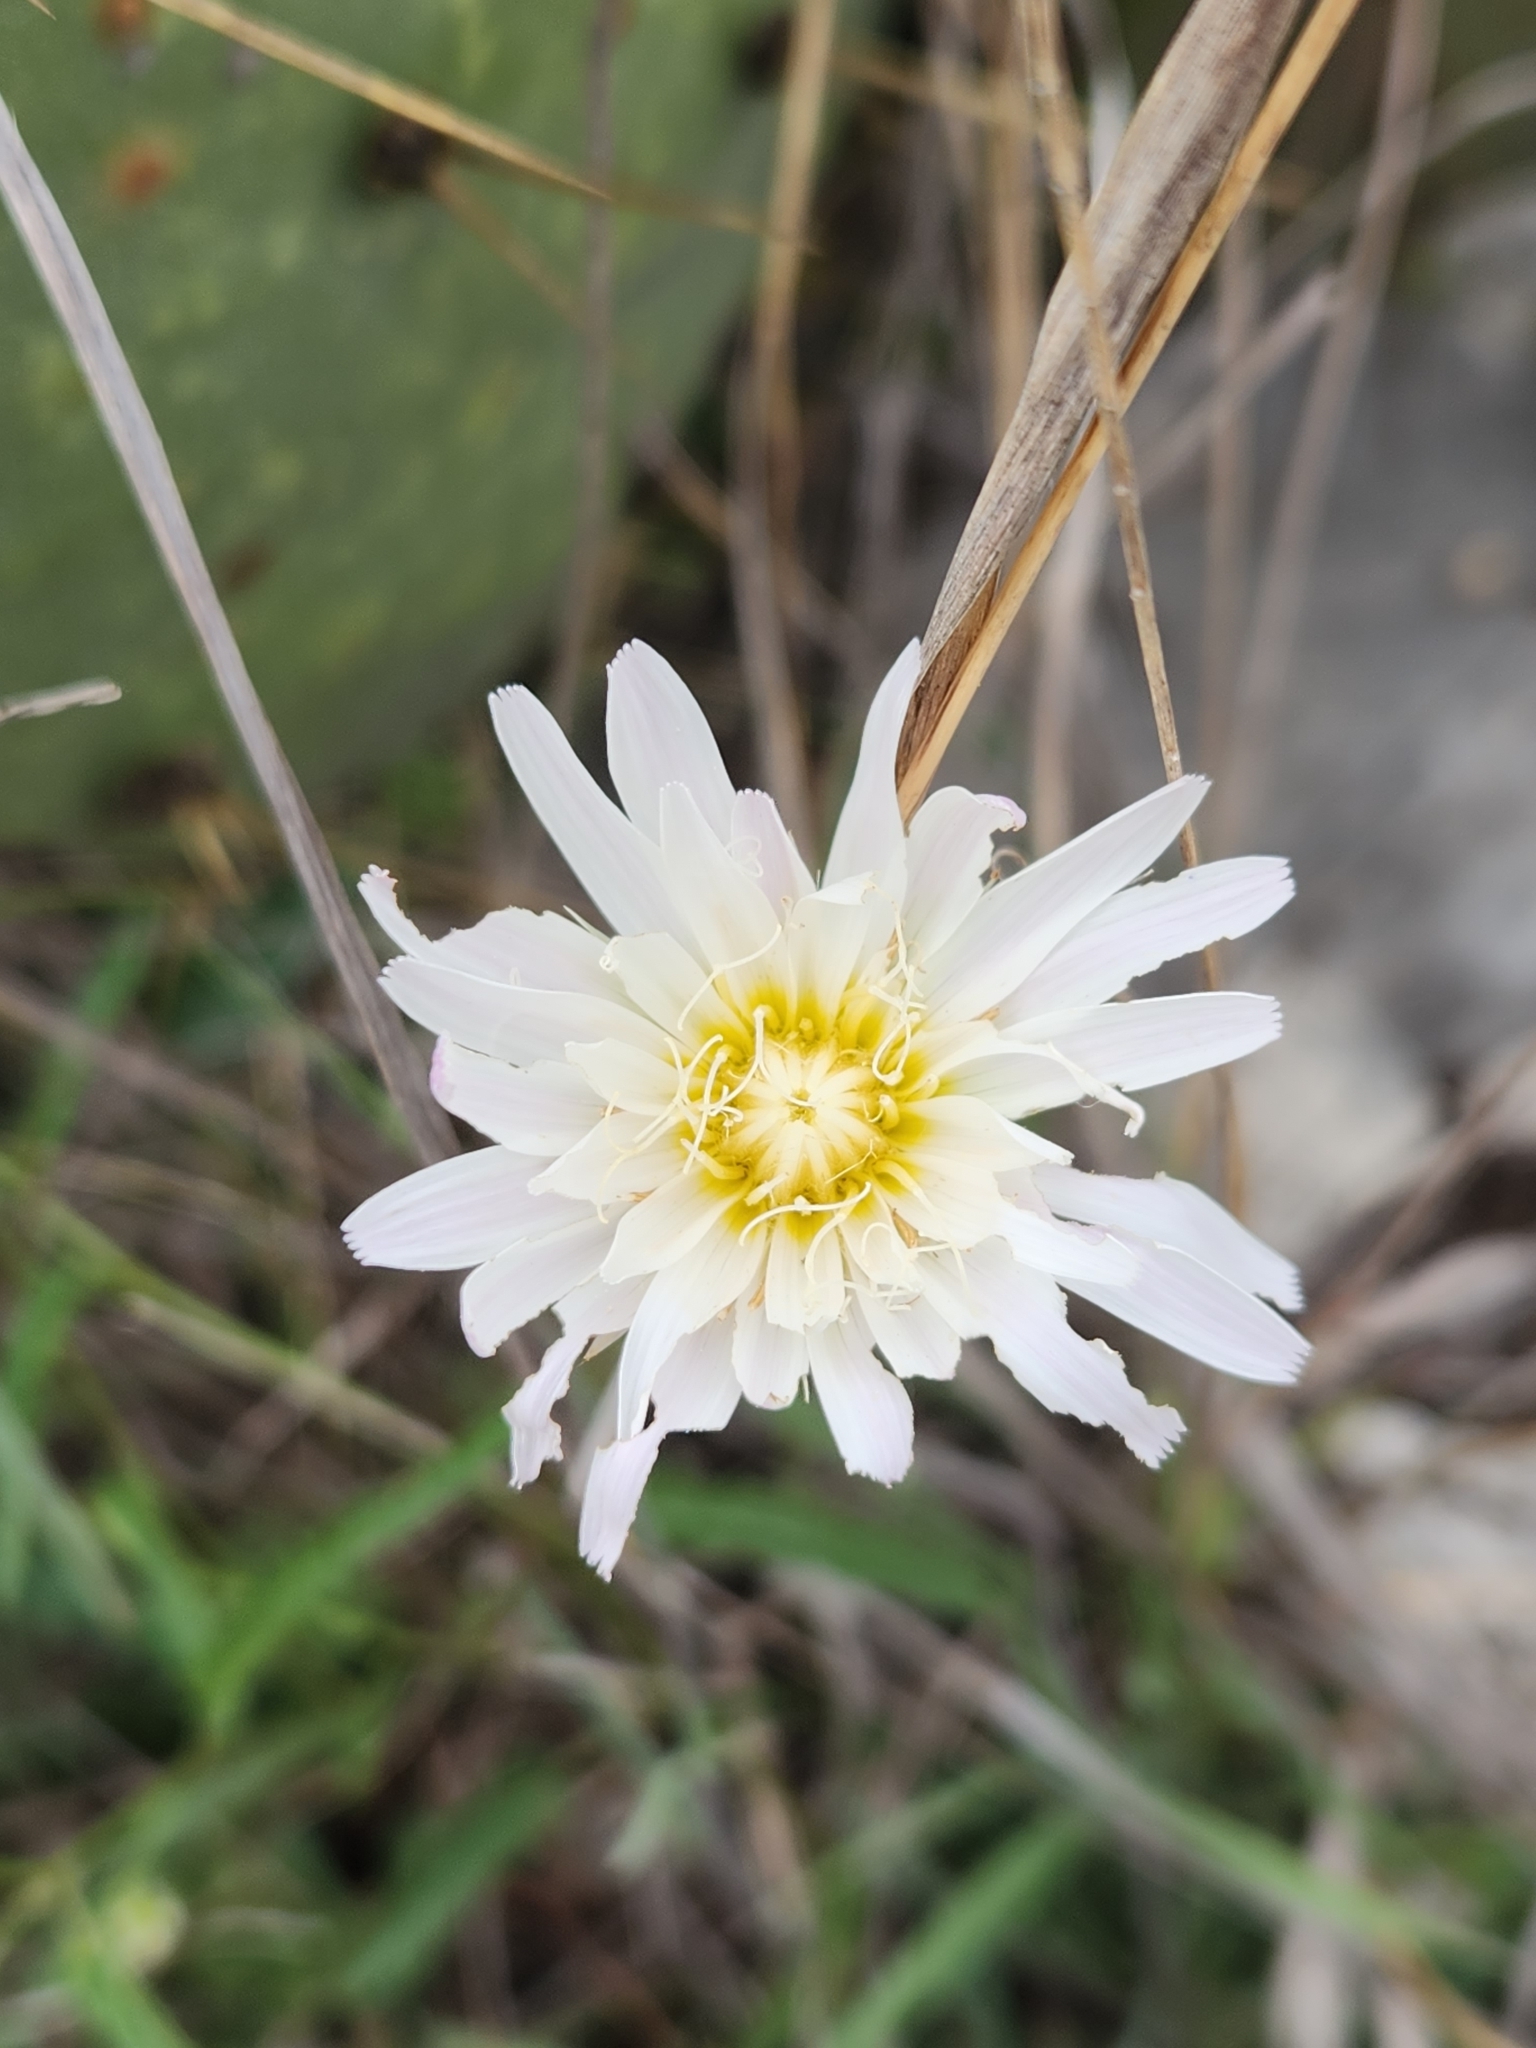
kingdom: Plantae
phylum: Tracheophyta
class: Magnoliopsida
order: Asterales
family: Asteraceae
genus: Pinaropappus
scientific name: Pinaropappus roseus
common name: Rock-lettuce
